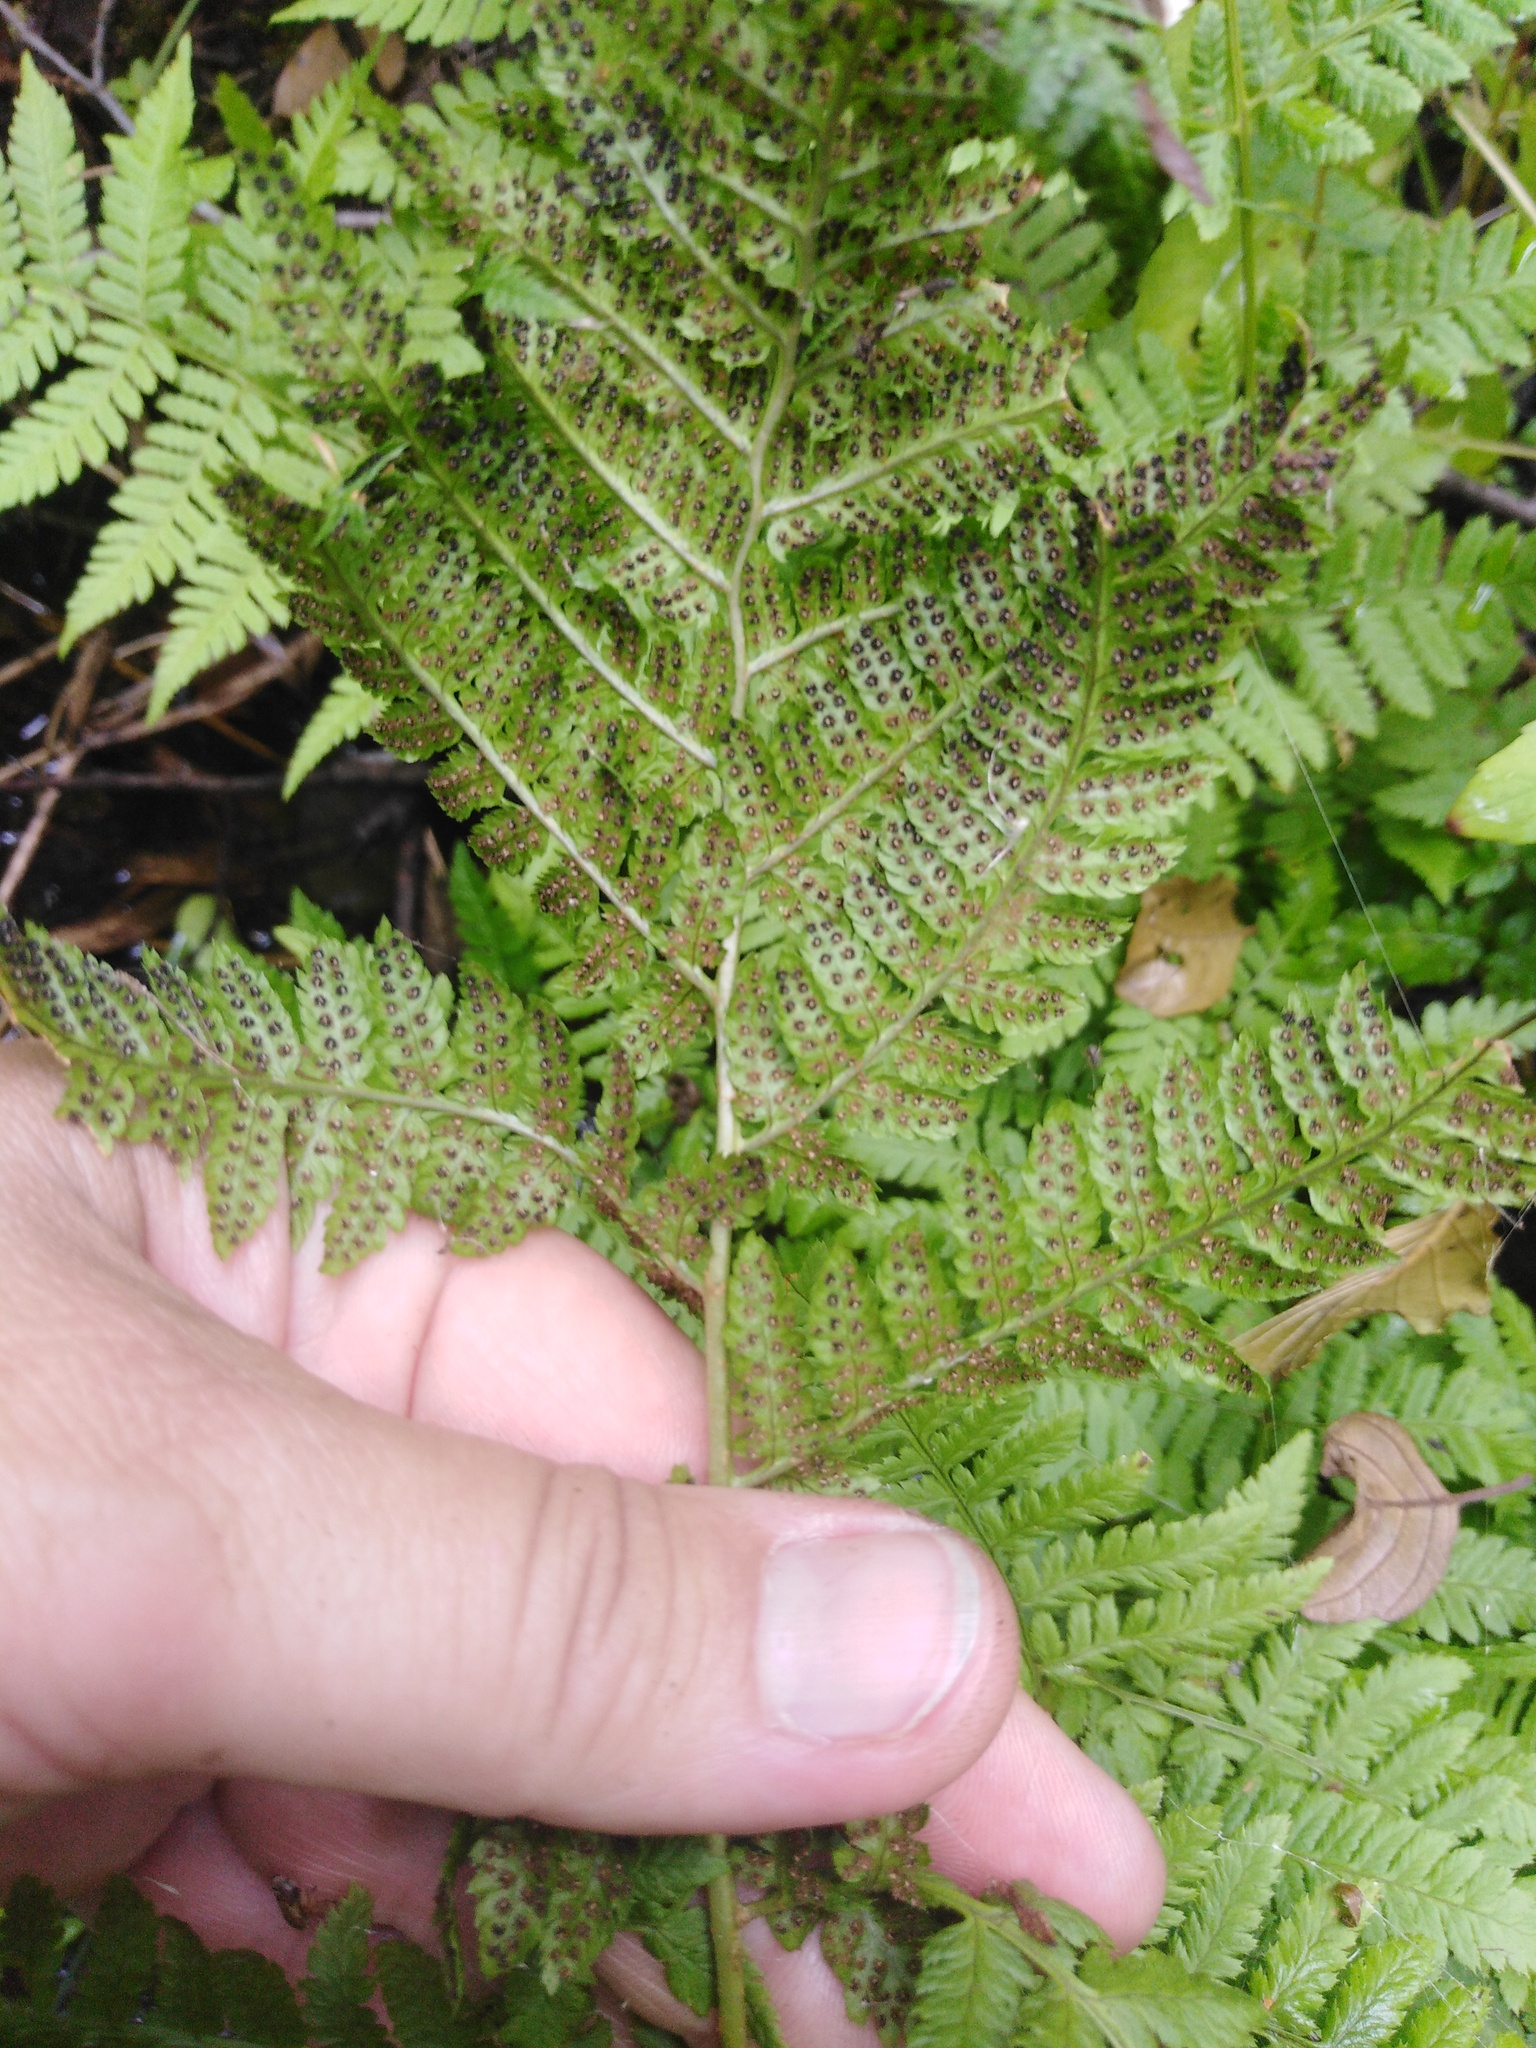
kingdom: Plantae
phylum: Tracheophyta
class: Polypodiopsida
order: Polypodiales
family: Dryopteridaceae
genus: Dryopteris
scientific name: Dryopteris carthusiana
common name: Narrow buckler-fern
